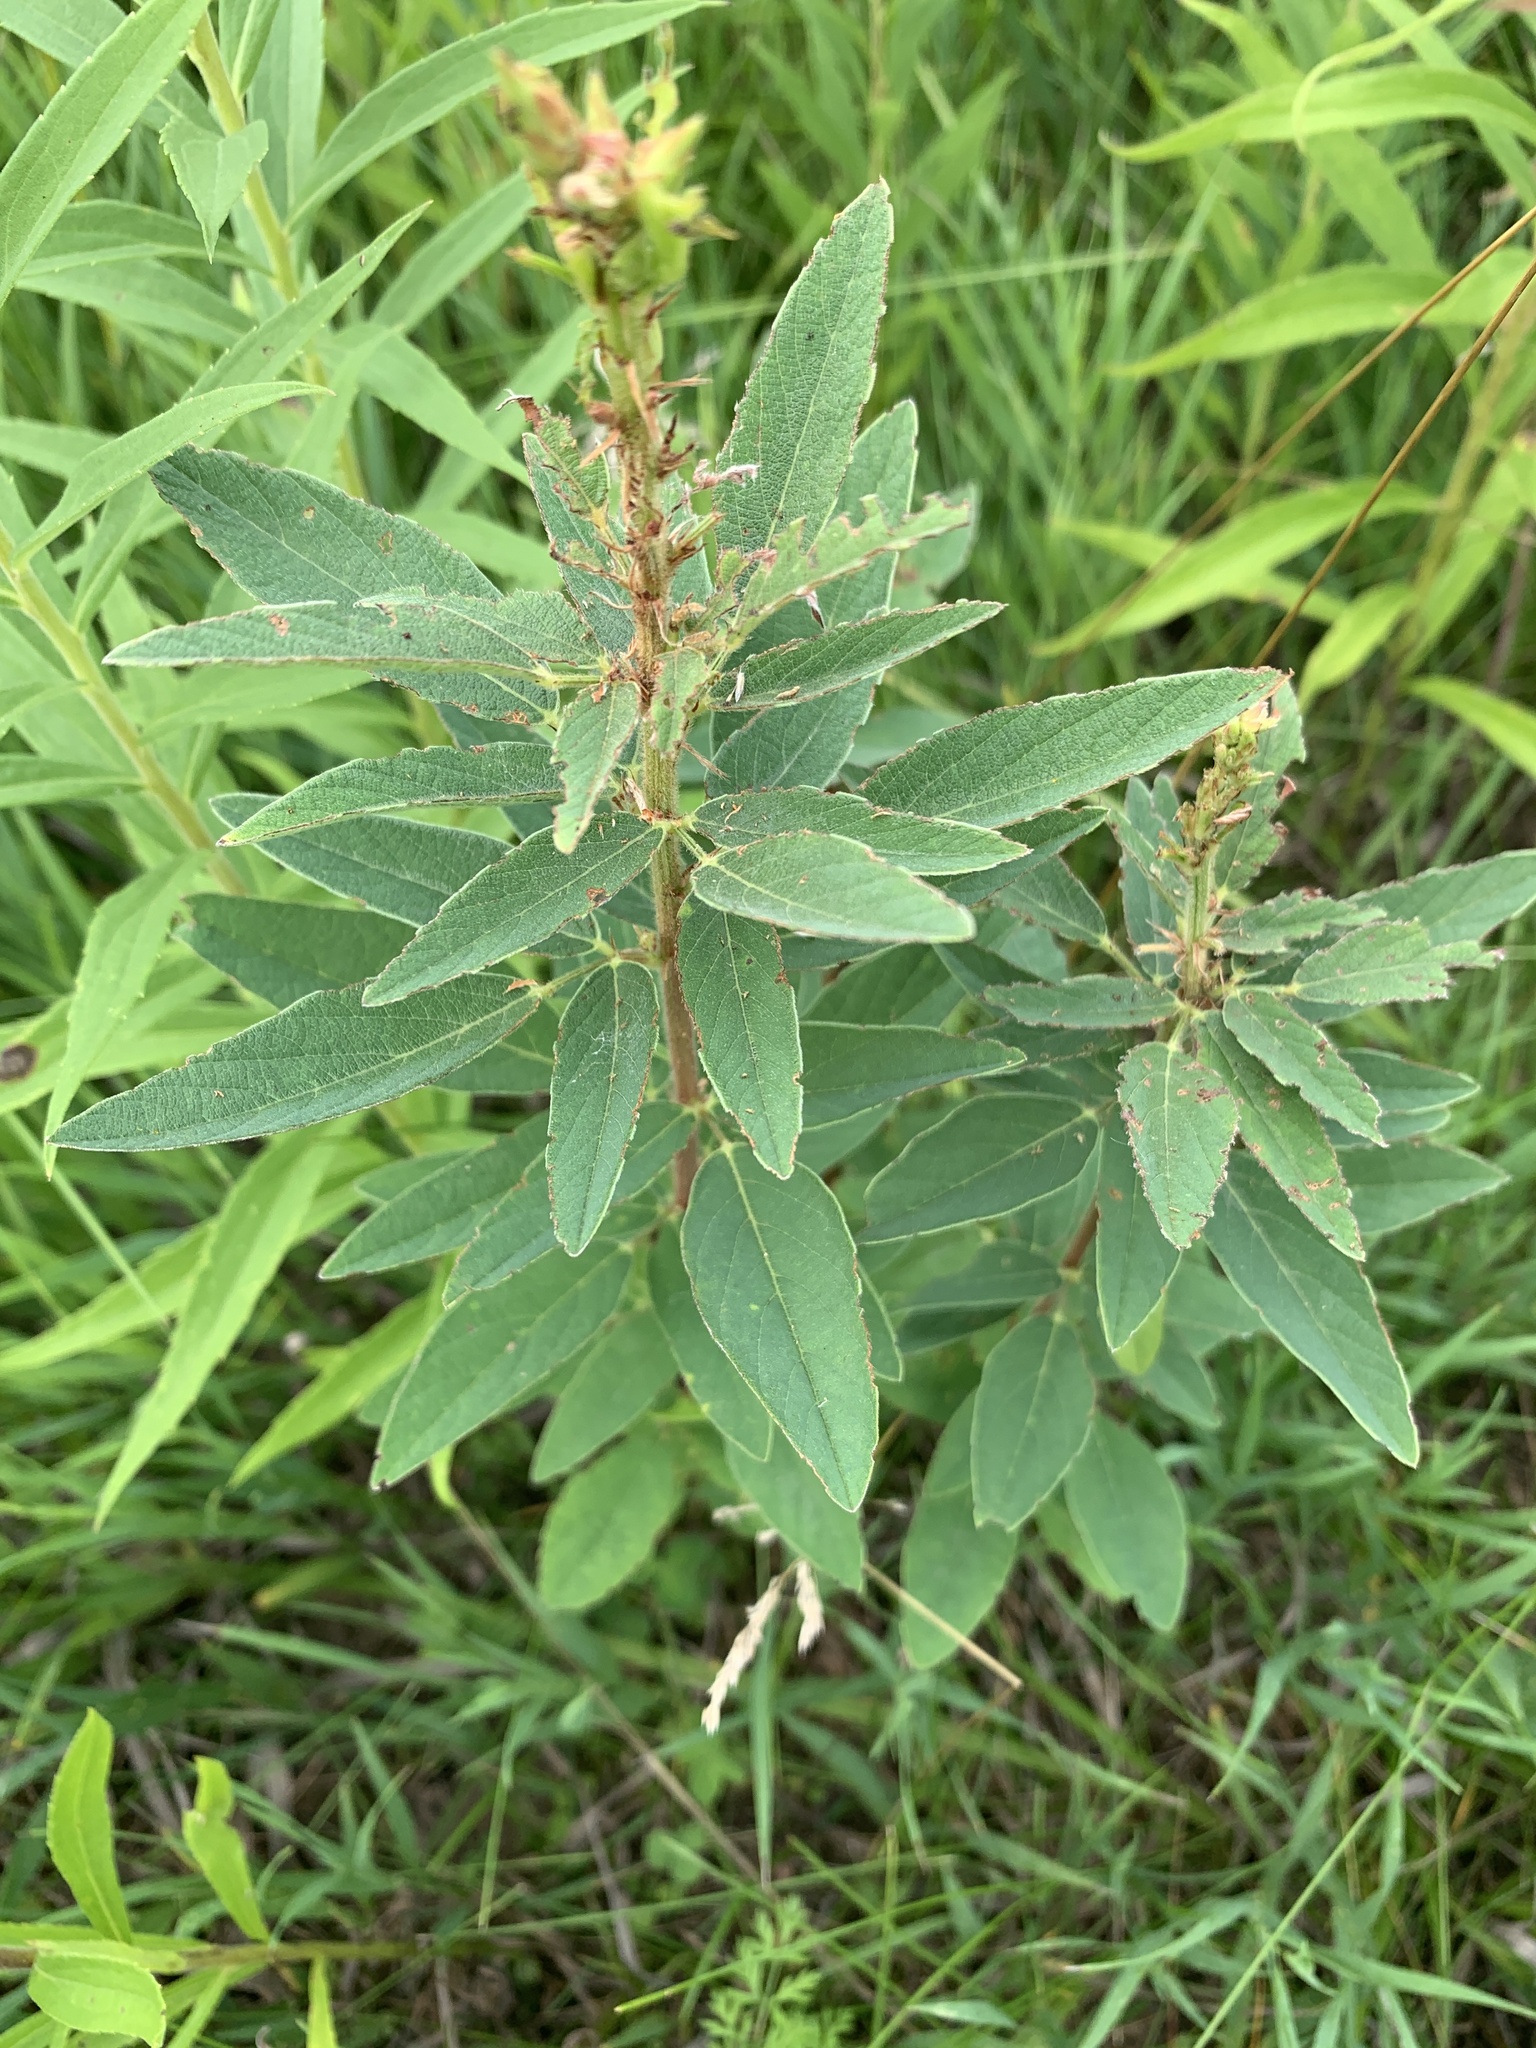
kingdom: Plantae
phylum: Tracheophyta
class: Magnoliopsida
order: Fabales
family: Fabaceae
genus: Desmodium
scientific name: Desmodium canadense
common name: Canada tick-trefoil
